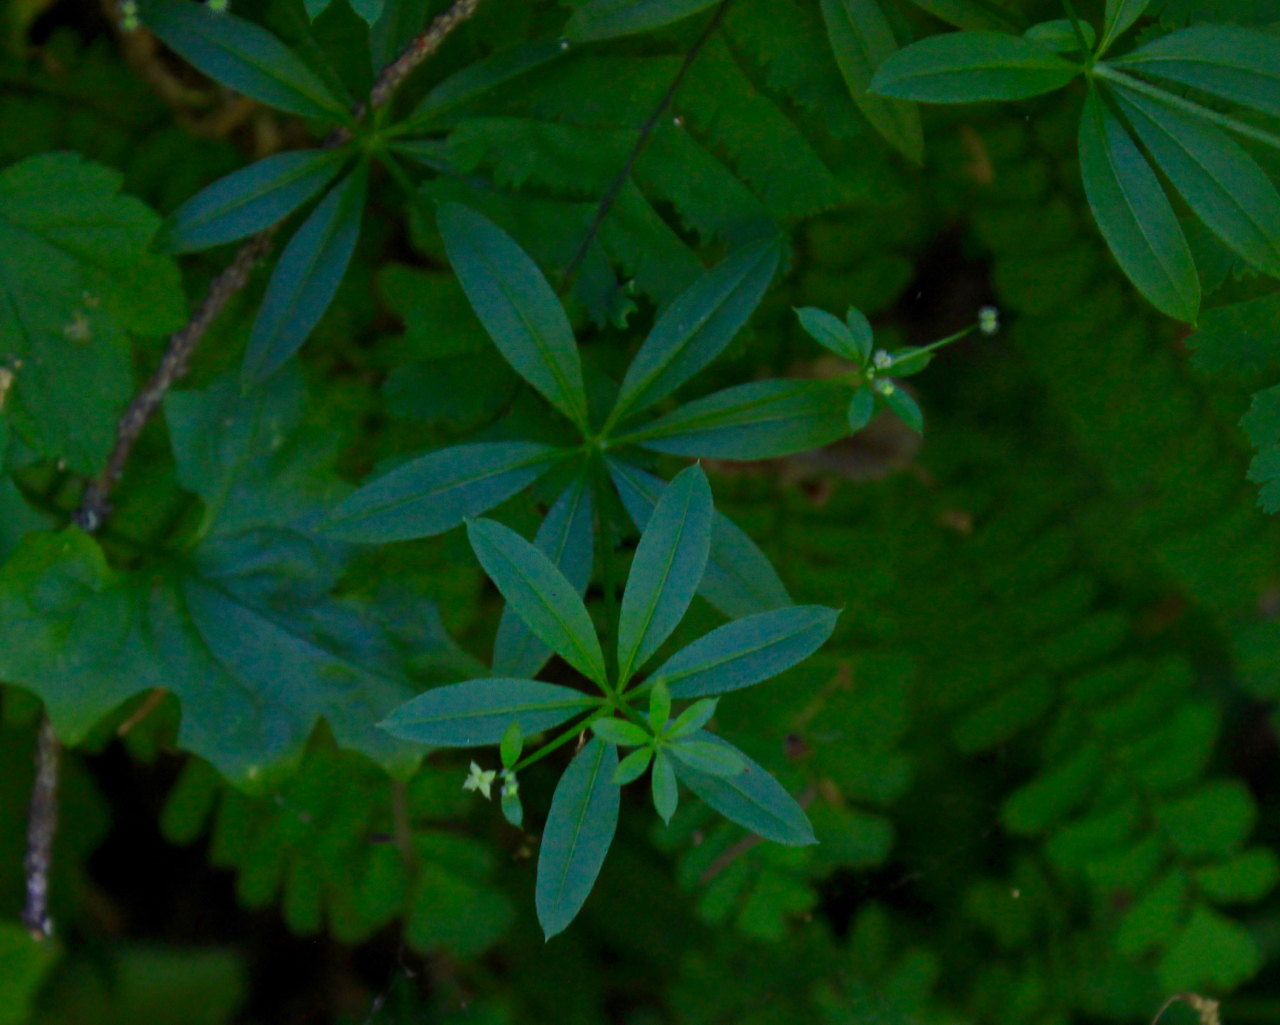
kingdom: Plantae
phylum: Tracheophyta
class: Magnoliopsida
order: Gentianales
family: Rubiaceae
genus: Galium
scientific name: Galium triflorum
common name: Fragrant bedstraw
